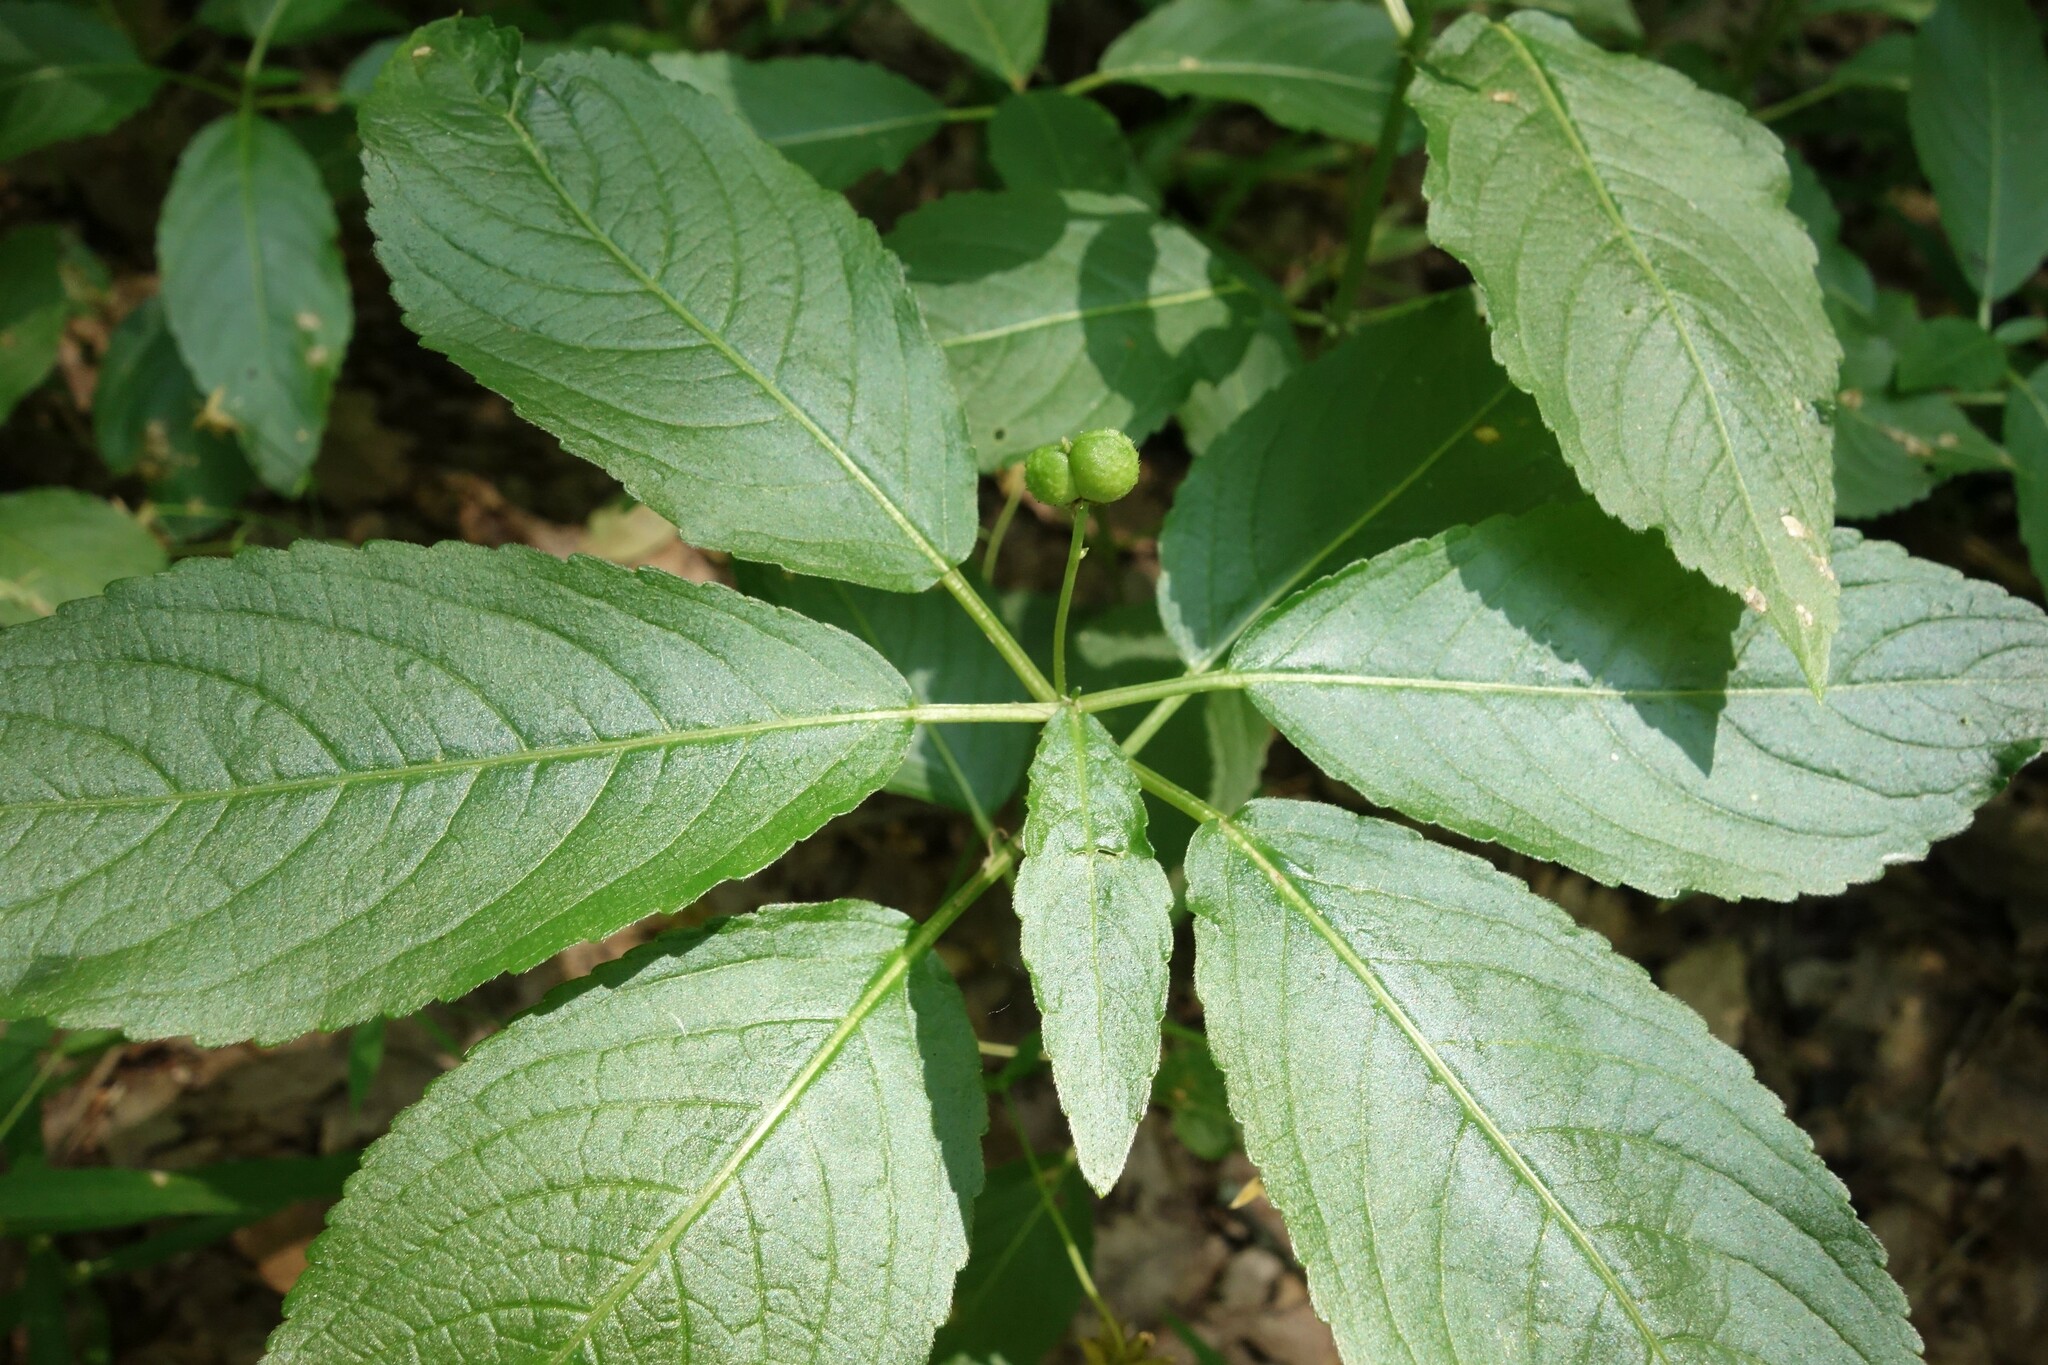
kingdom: Plantae
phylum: Tracheophyta
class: Magnoliopsida
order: Malpighiales
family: Euphorbiaceae
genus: Mercurialis
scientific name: Mercurialis perennis
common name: Dog mercury
